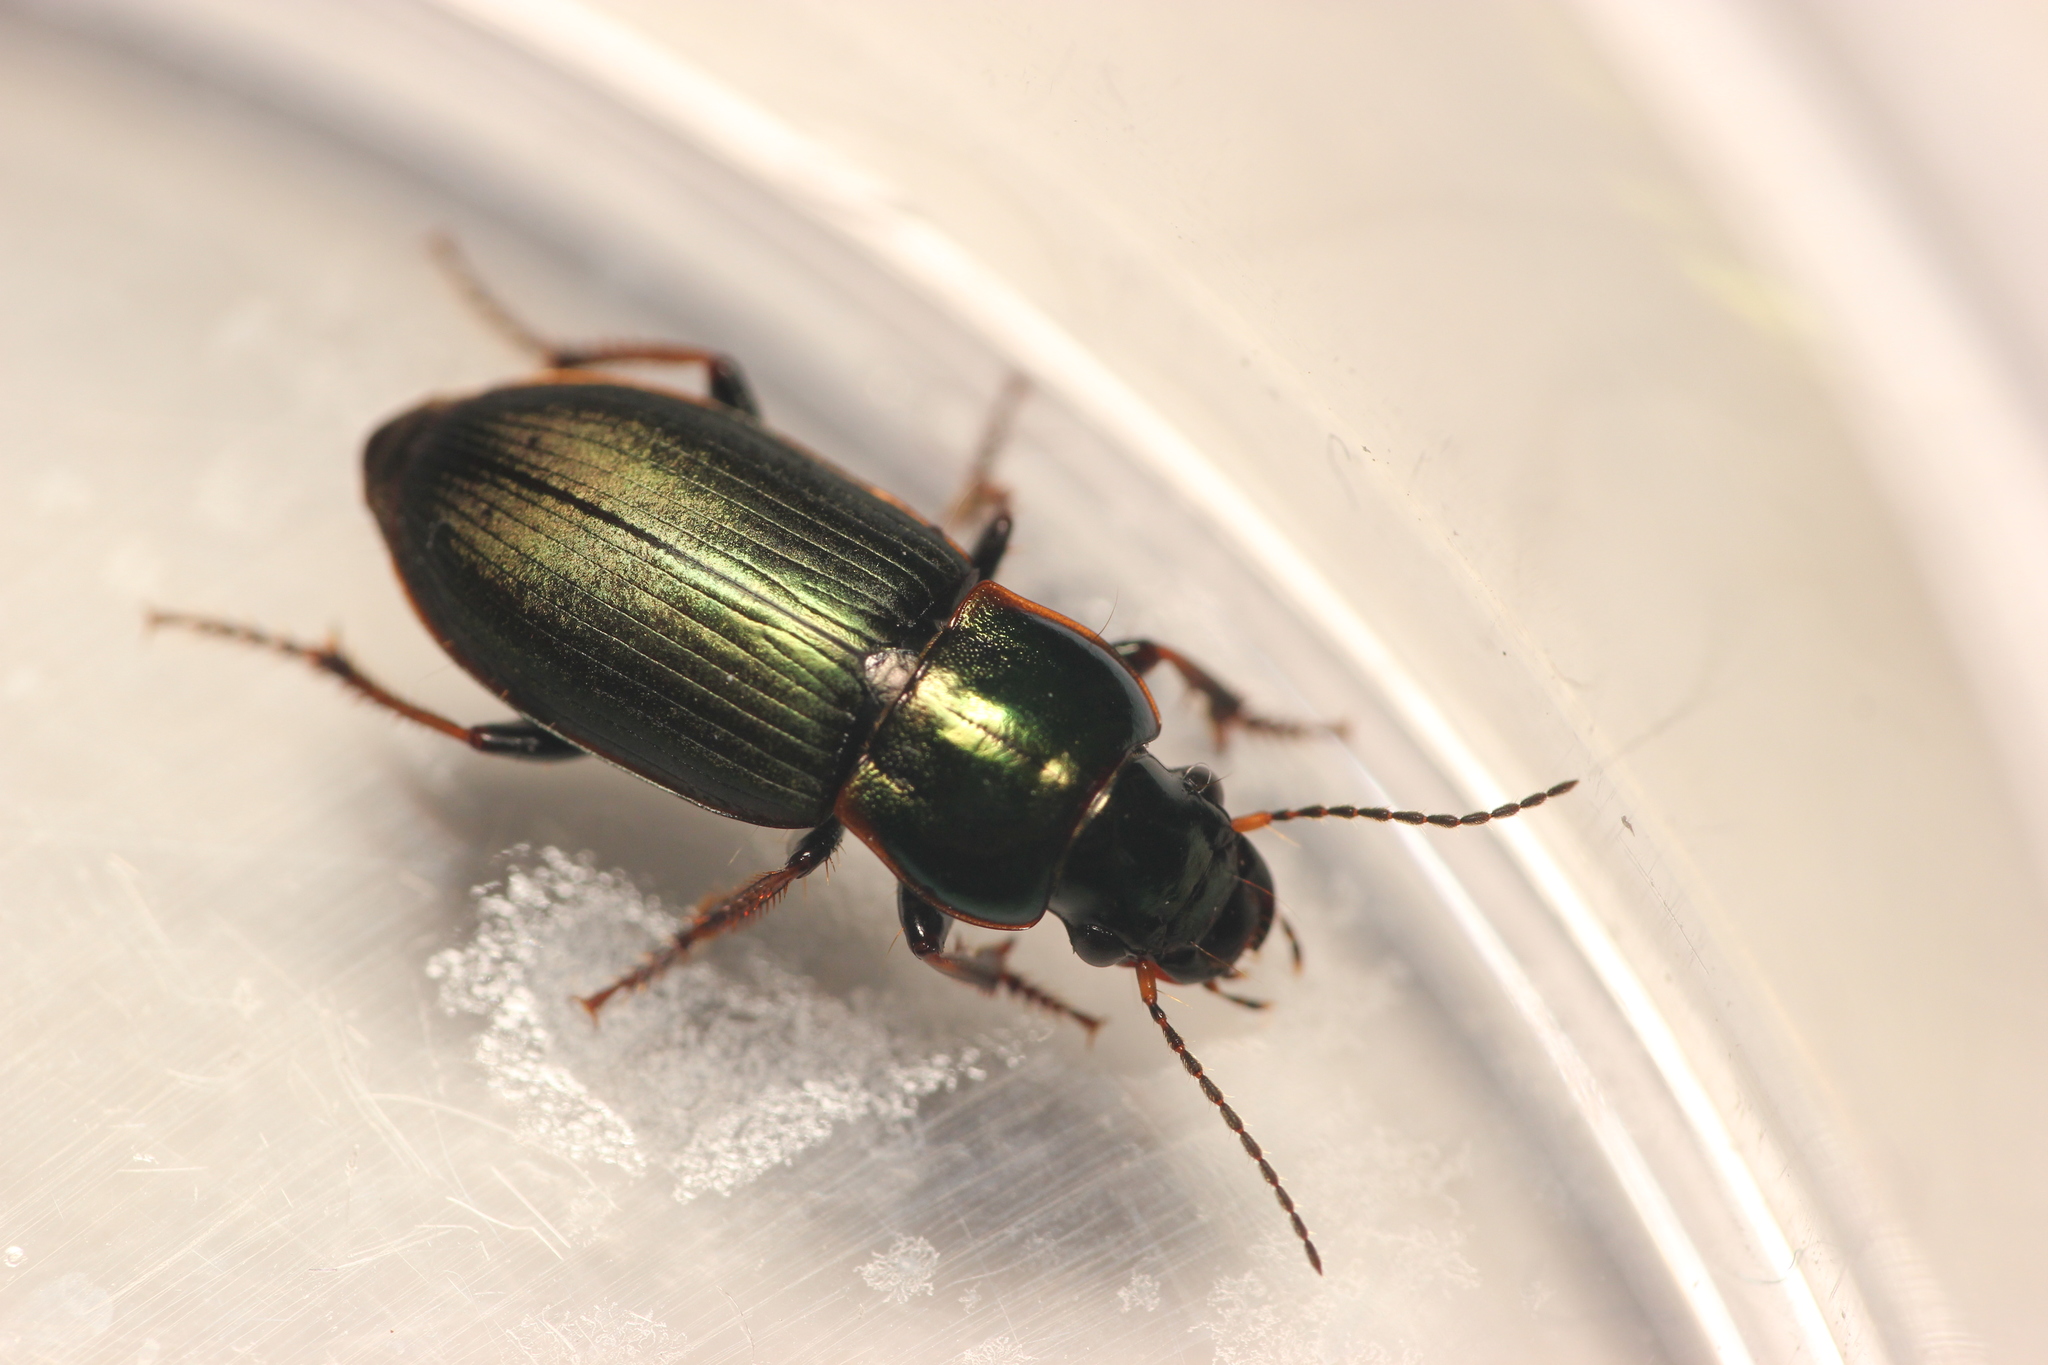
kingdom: Animalia
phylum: Arthropoda
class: Insecta
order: Coleoptera
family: Carabidae
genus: Harpalus
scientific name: Harpalus distinguendus
